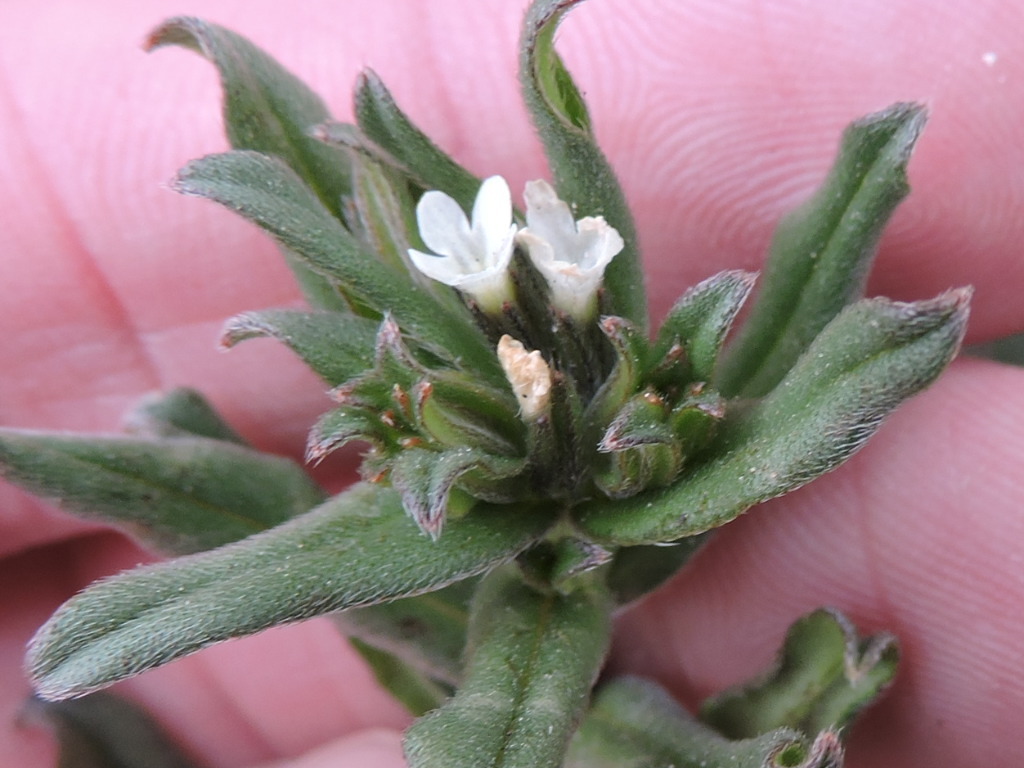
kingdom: Plantae
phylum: Tracheophyta
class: Magnoliopsida
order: Boraginales
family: Boraginaceae
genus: Buglossoides
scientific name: Buglossoides arvensis
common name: Corn gromwell
